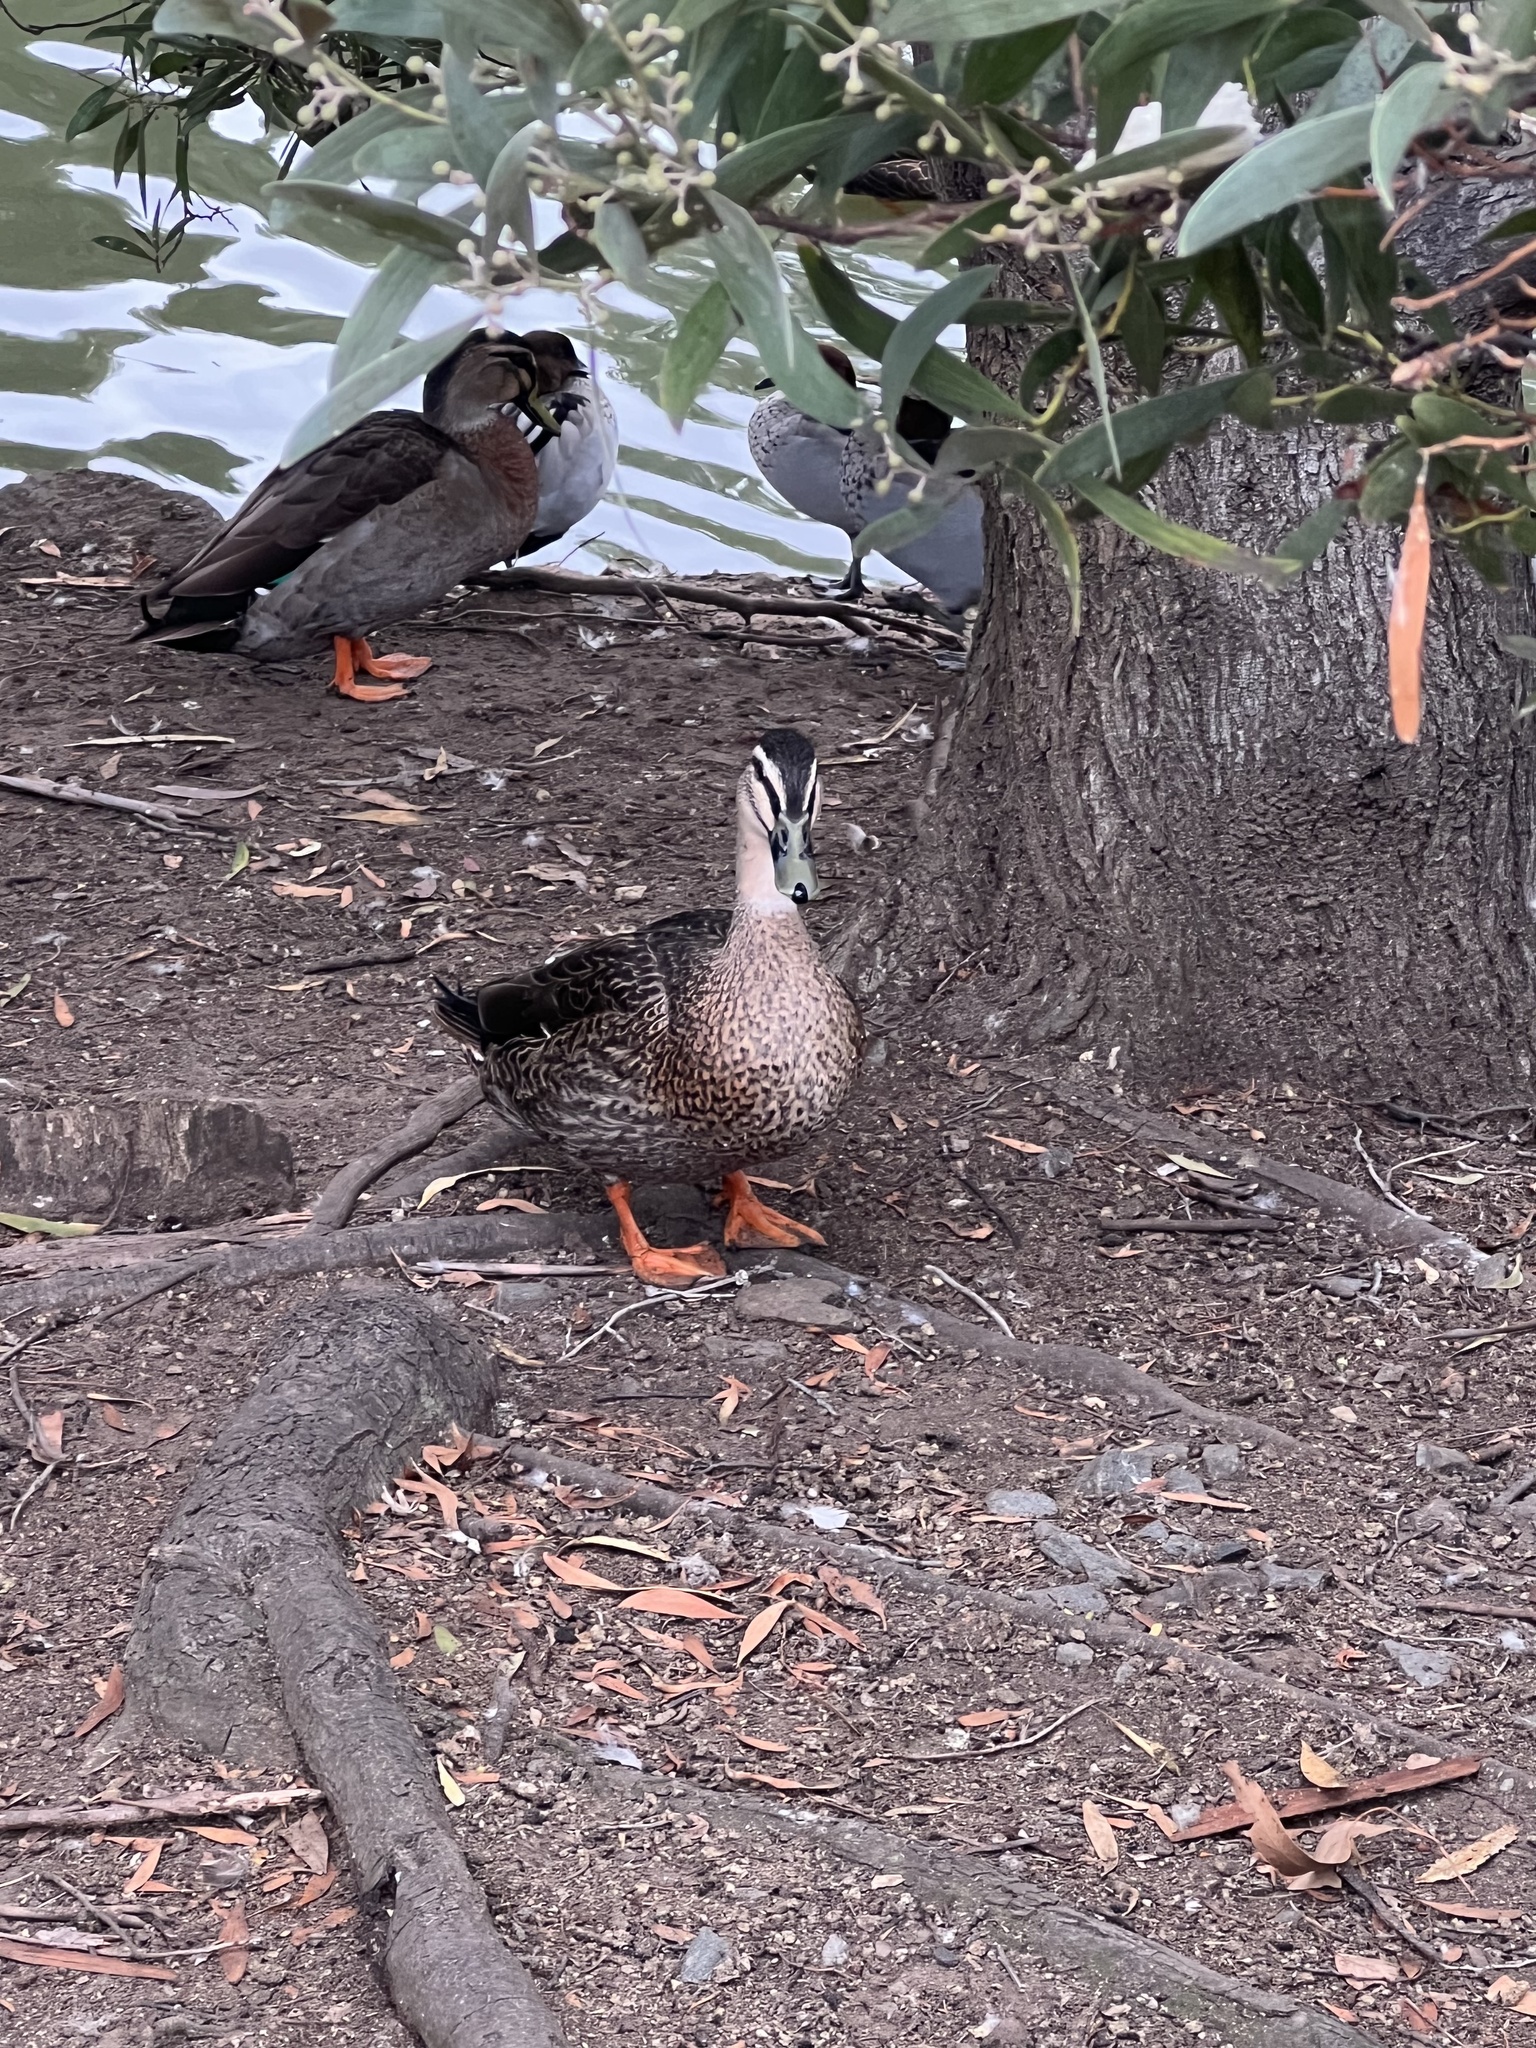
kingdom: Animalia
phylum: Chordata
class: Aves
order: Anseriformes
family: Anatidae
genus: Anas
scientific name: Anas
